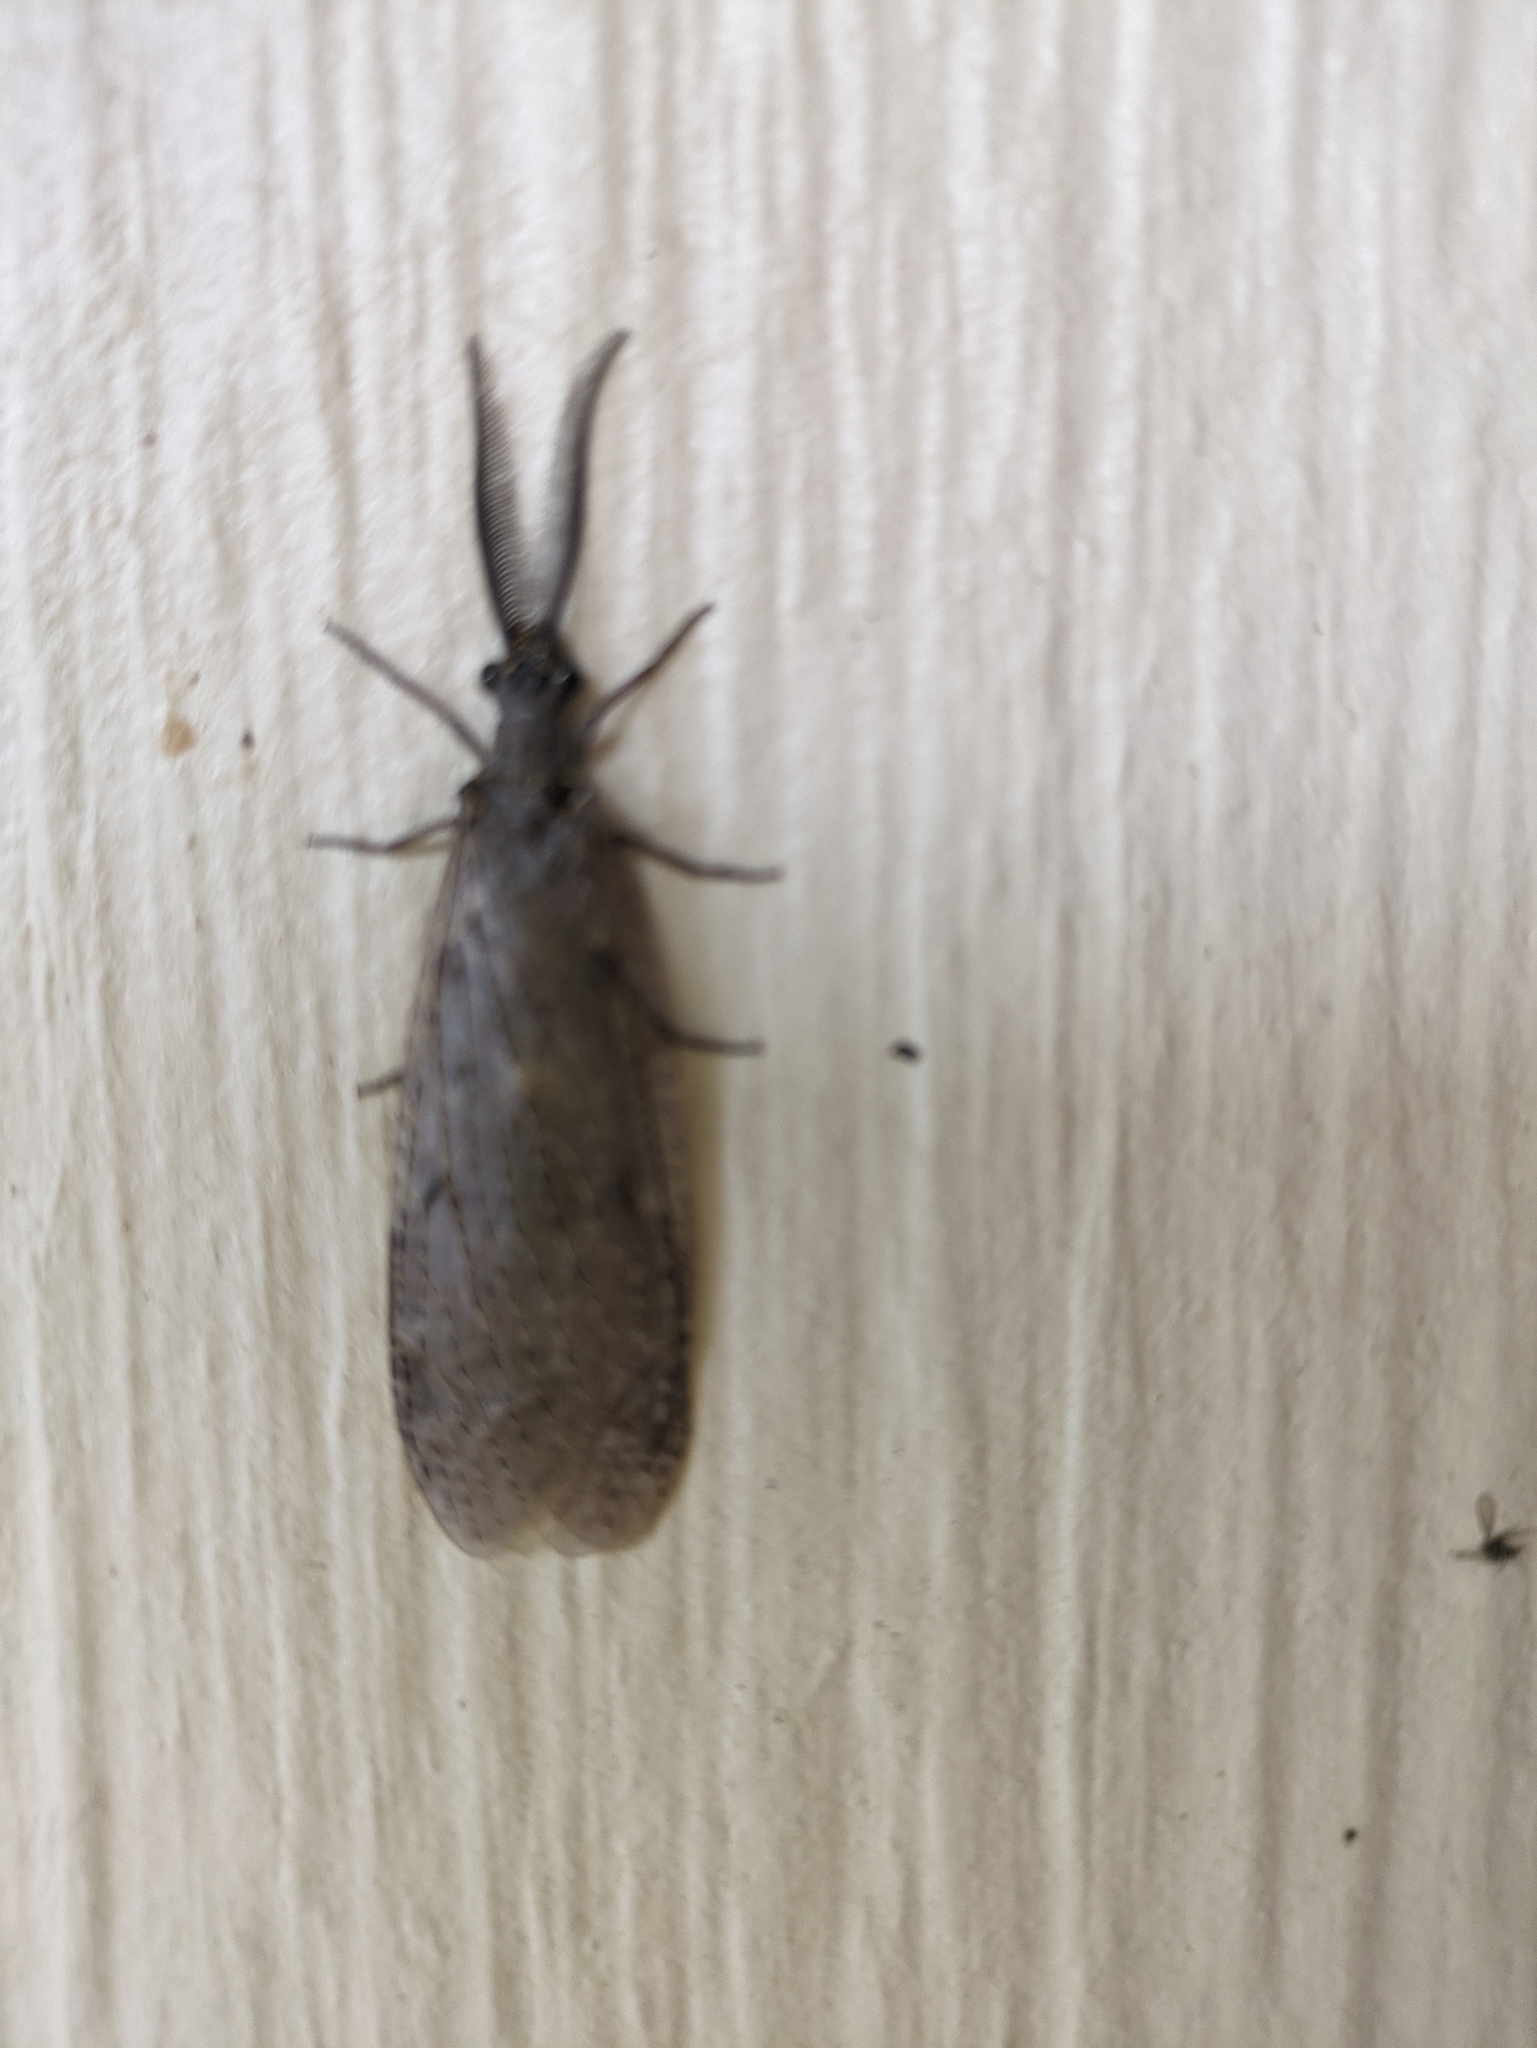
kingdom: Animalia
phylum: Arthropoda
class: Insecta
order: Megaloptera
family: Corydalidae
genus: Chauliodes
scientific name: Chauliodes rastricornis
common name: Spring fishfly
